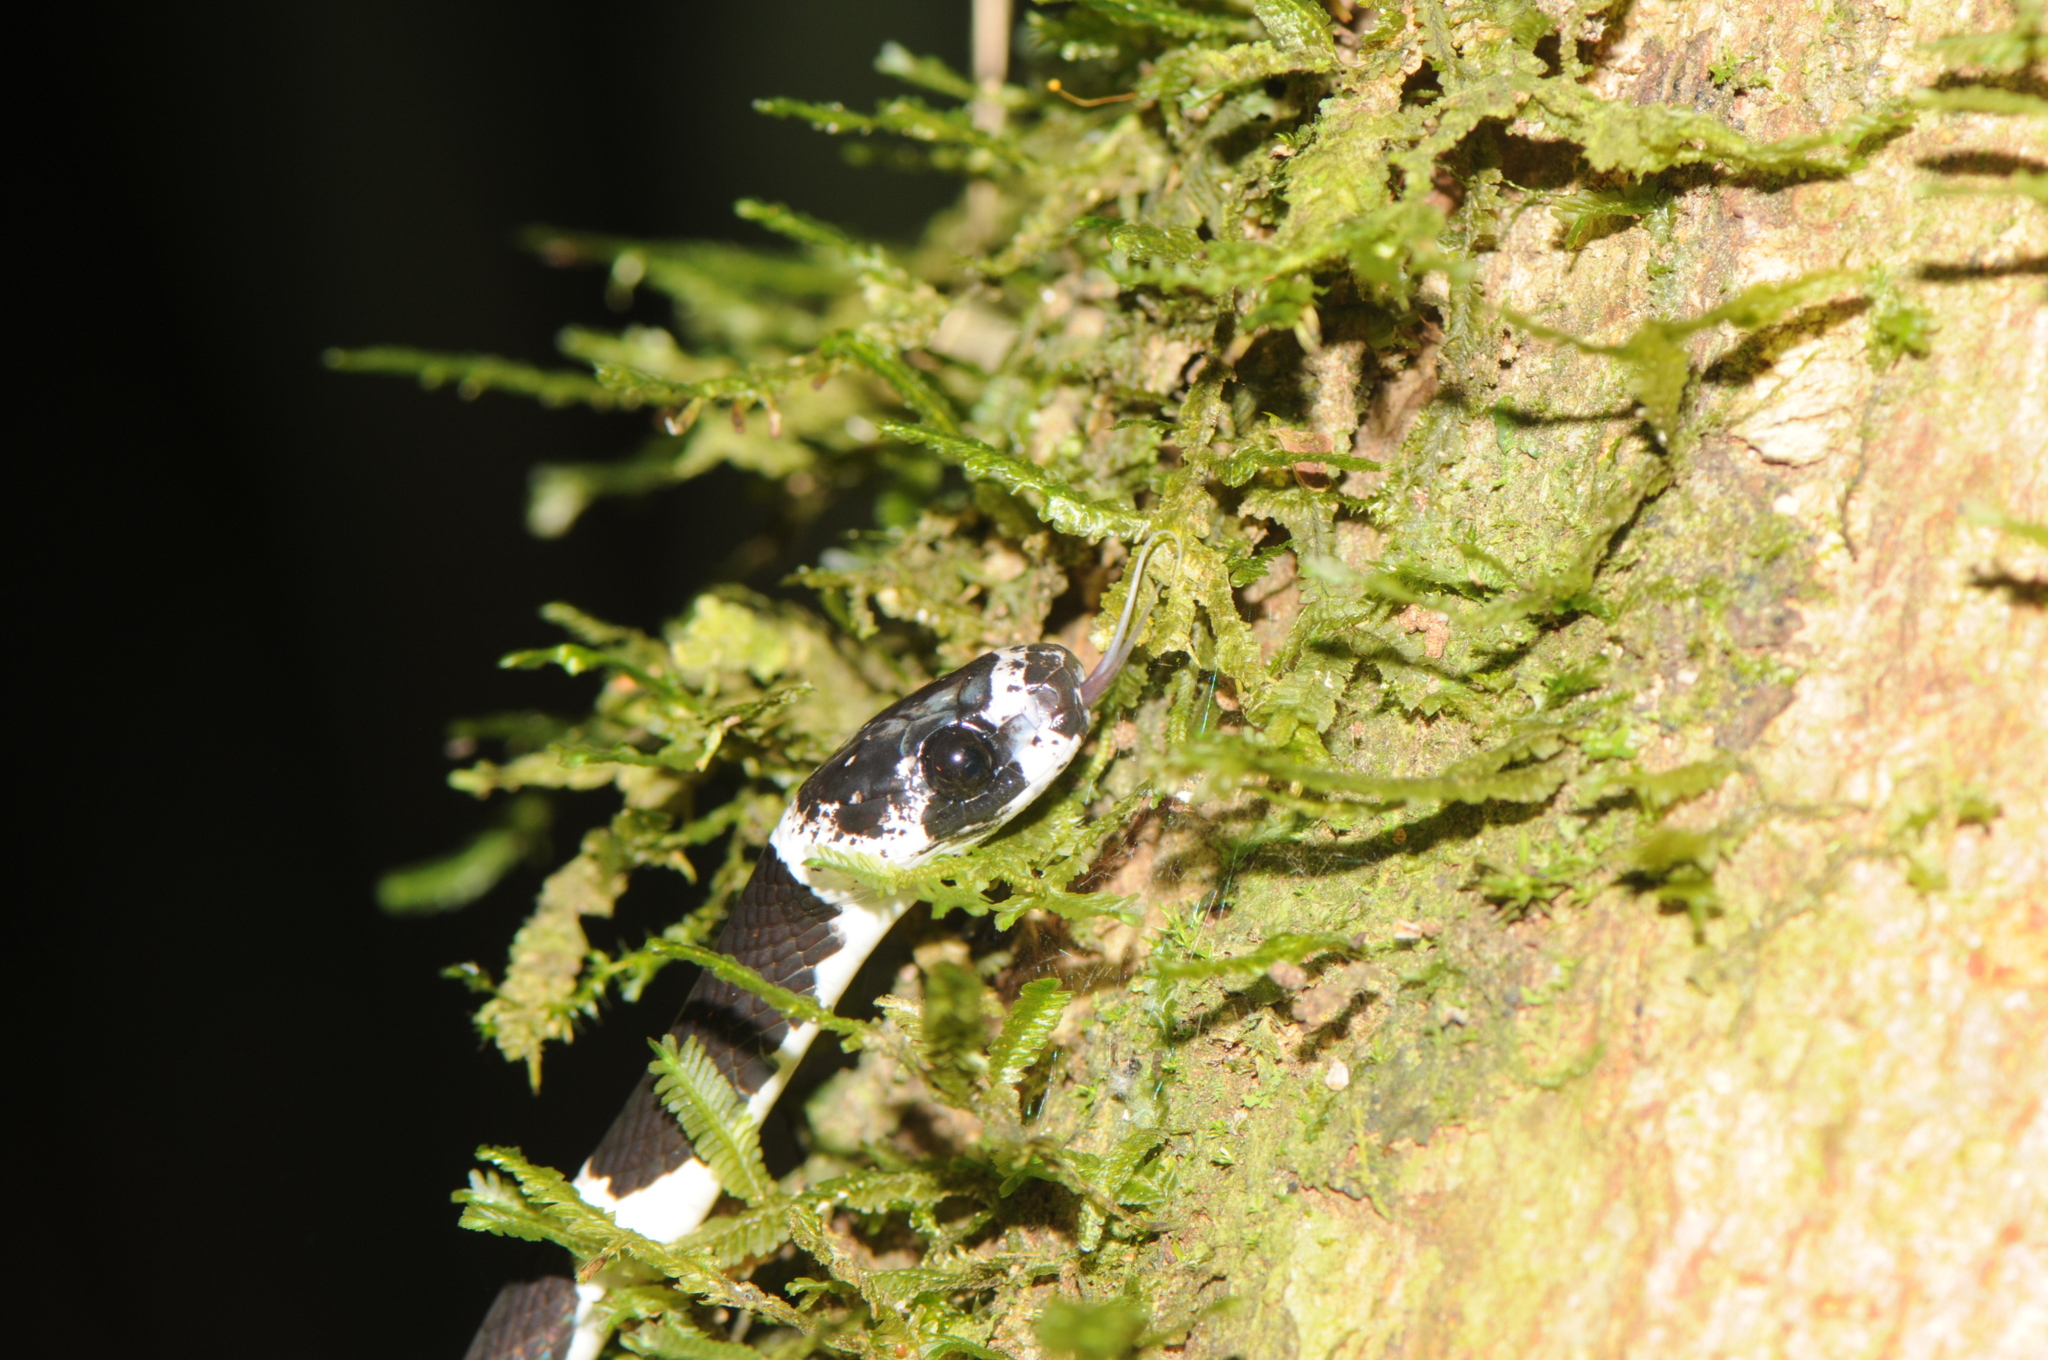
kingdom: Animalia
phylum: Chordata
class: Squamata
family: Colubridae
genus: Dipsas
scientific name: Dipsas catesbyi
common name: Catesby's snail-eater
